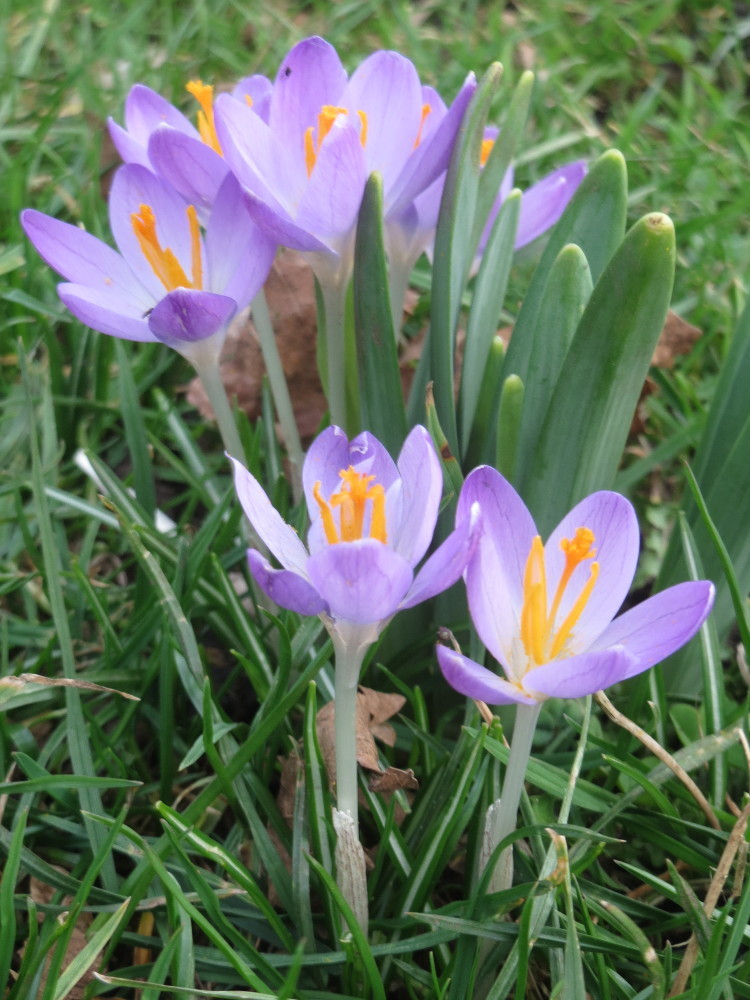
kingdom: Plantae
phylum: Tracheophyta
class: Liliopsida
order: Asparagales
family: Iridaceae
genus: Crocus
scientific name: Crocus tommasinianus
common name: Early crocus
